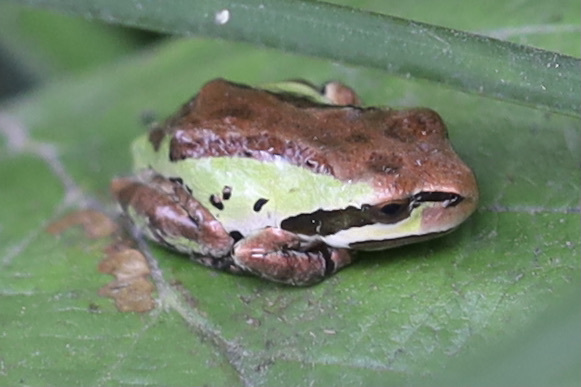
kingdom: Animalia
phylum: Chordata
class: Amphibia
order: Anura
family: Hylidae
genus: Pseudacris
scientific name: Pseudacris regilla
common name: Pacific chorus frog
